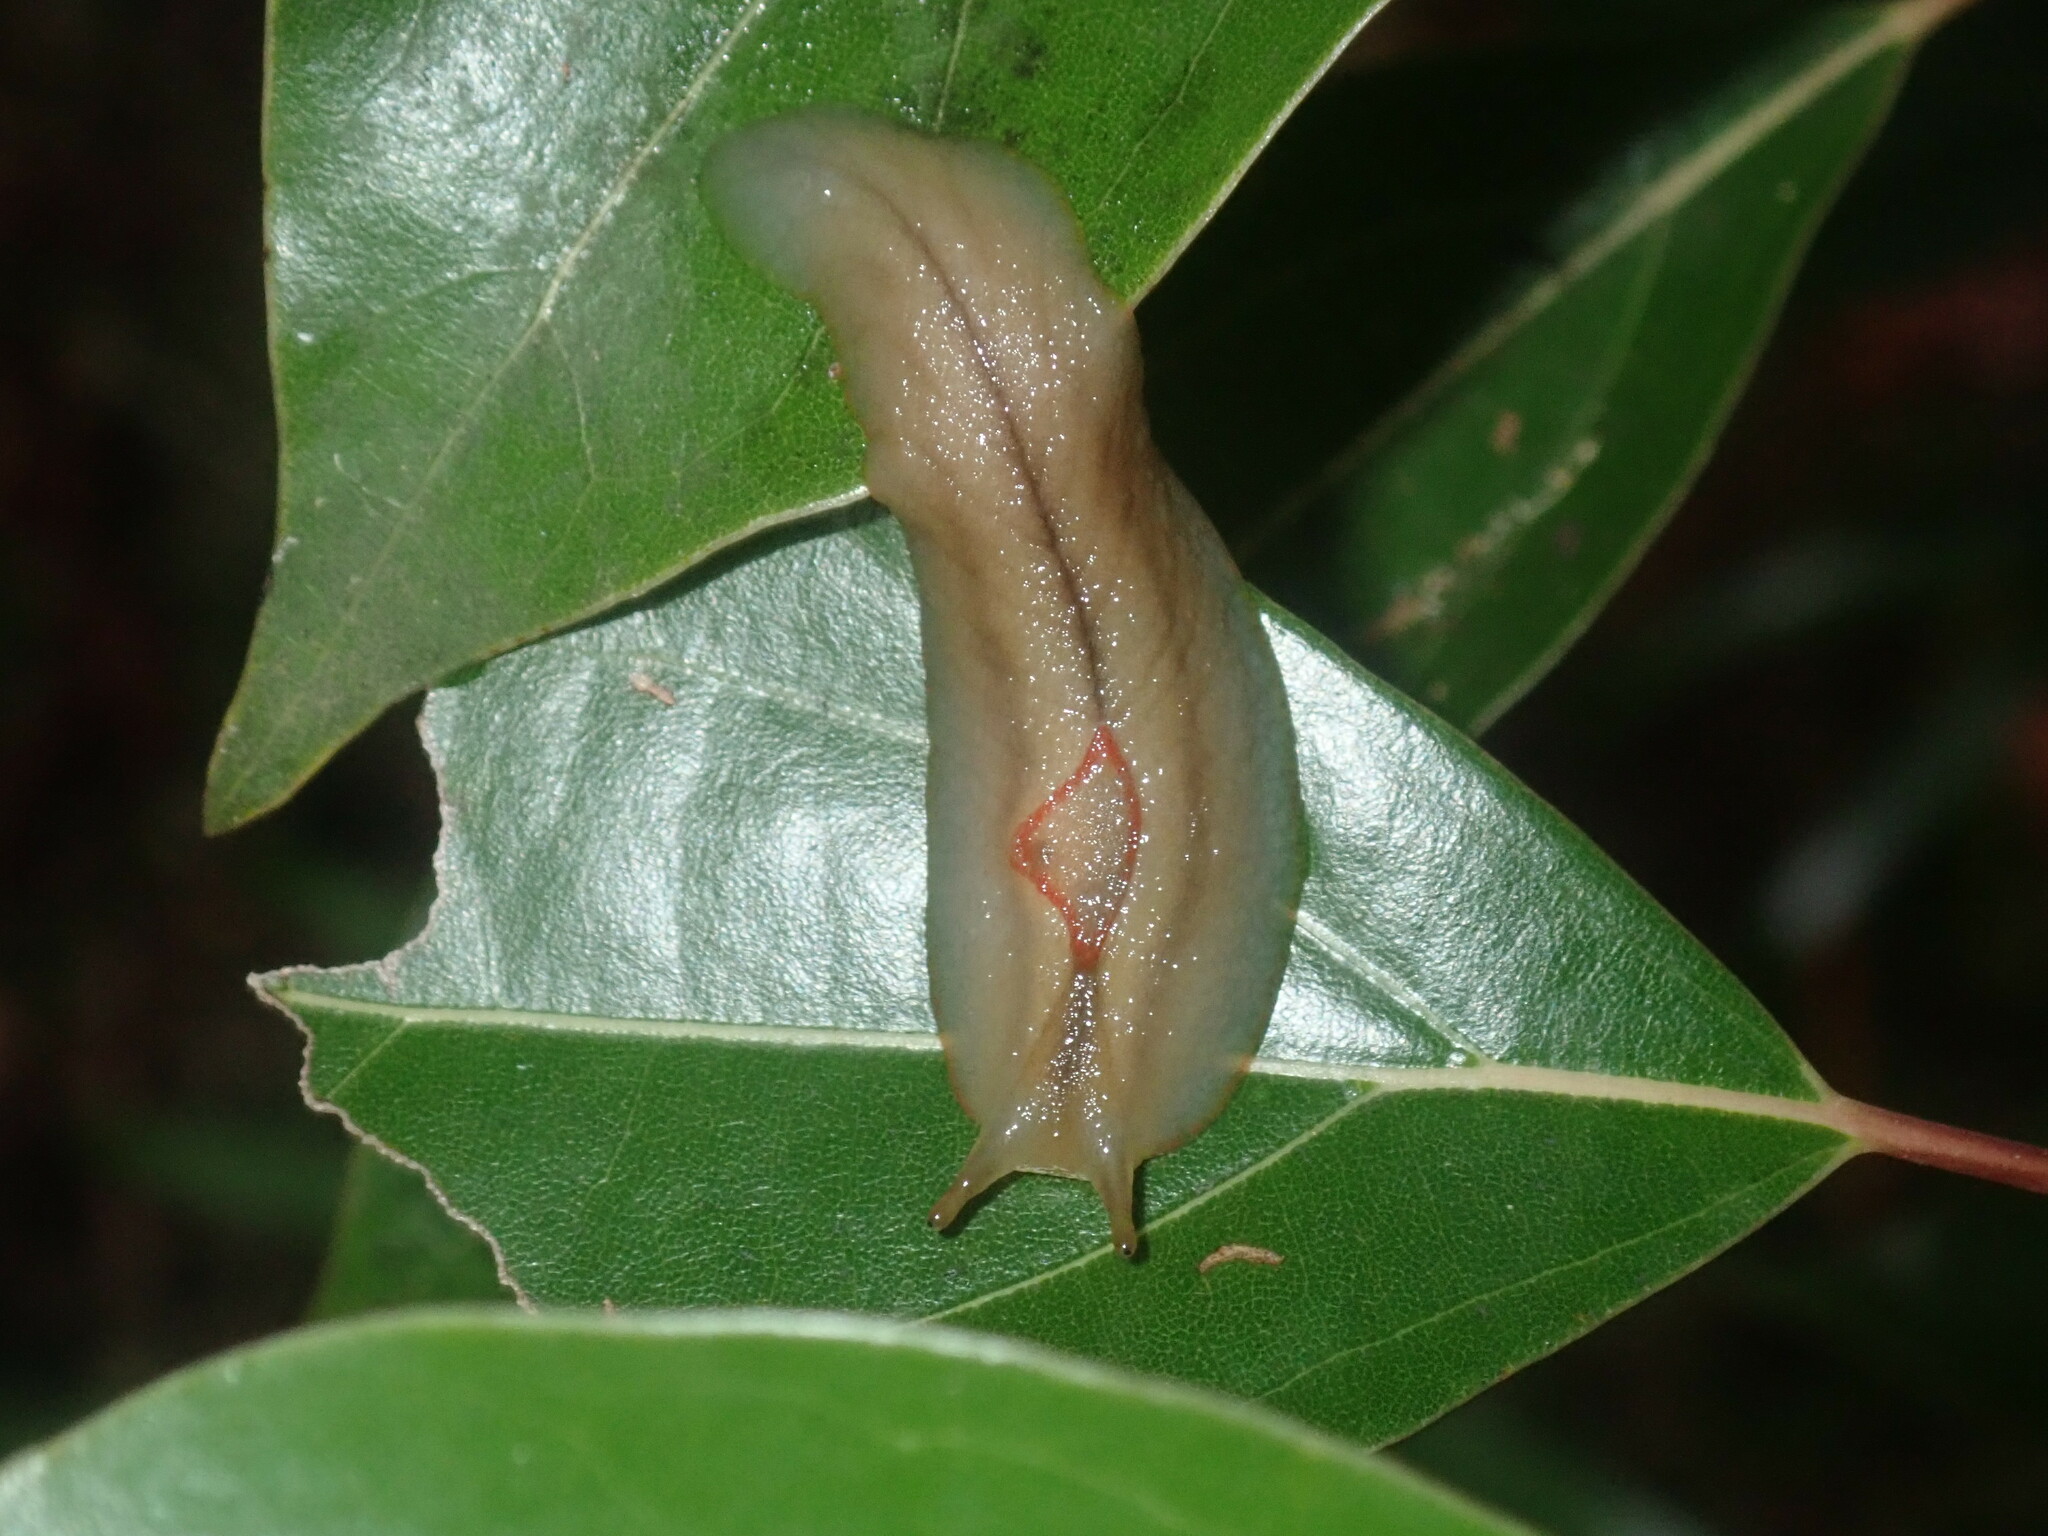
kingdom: Animalia
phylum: Mollusca
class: Gastropoda
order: Stylommatophora
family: Athoracophoridae
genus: Triboniophorus
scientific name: Triboniophorus graeffei
